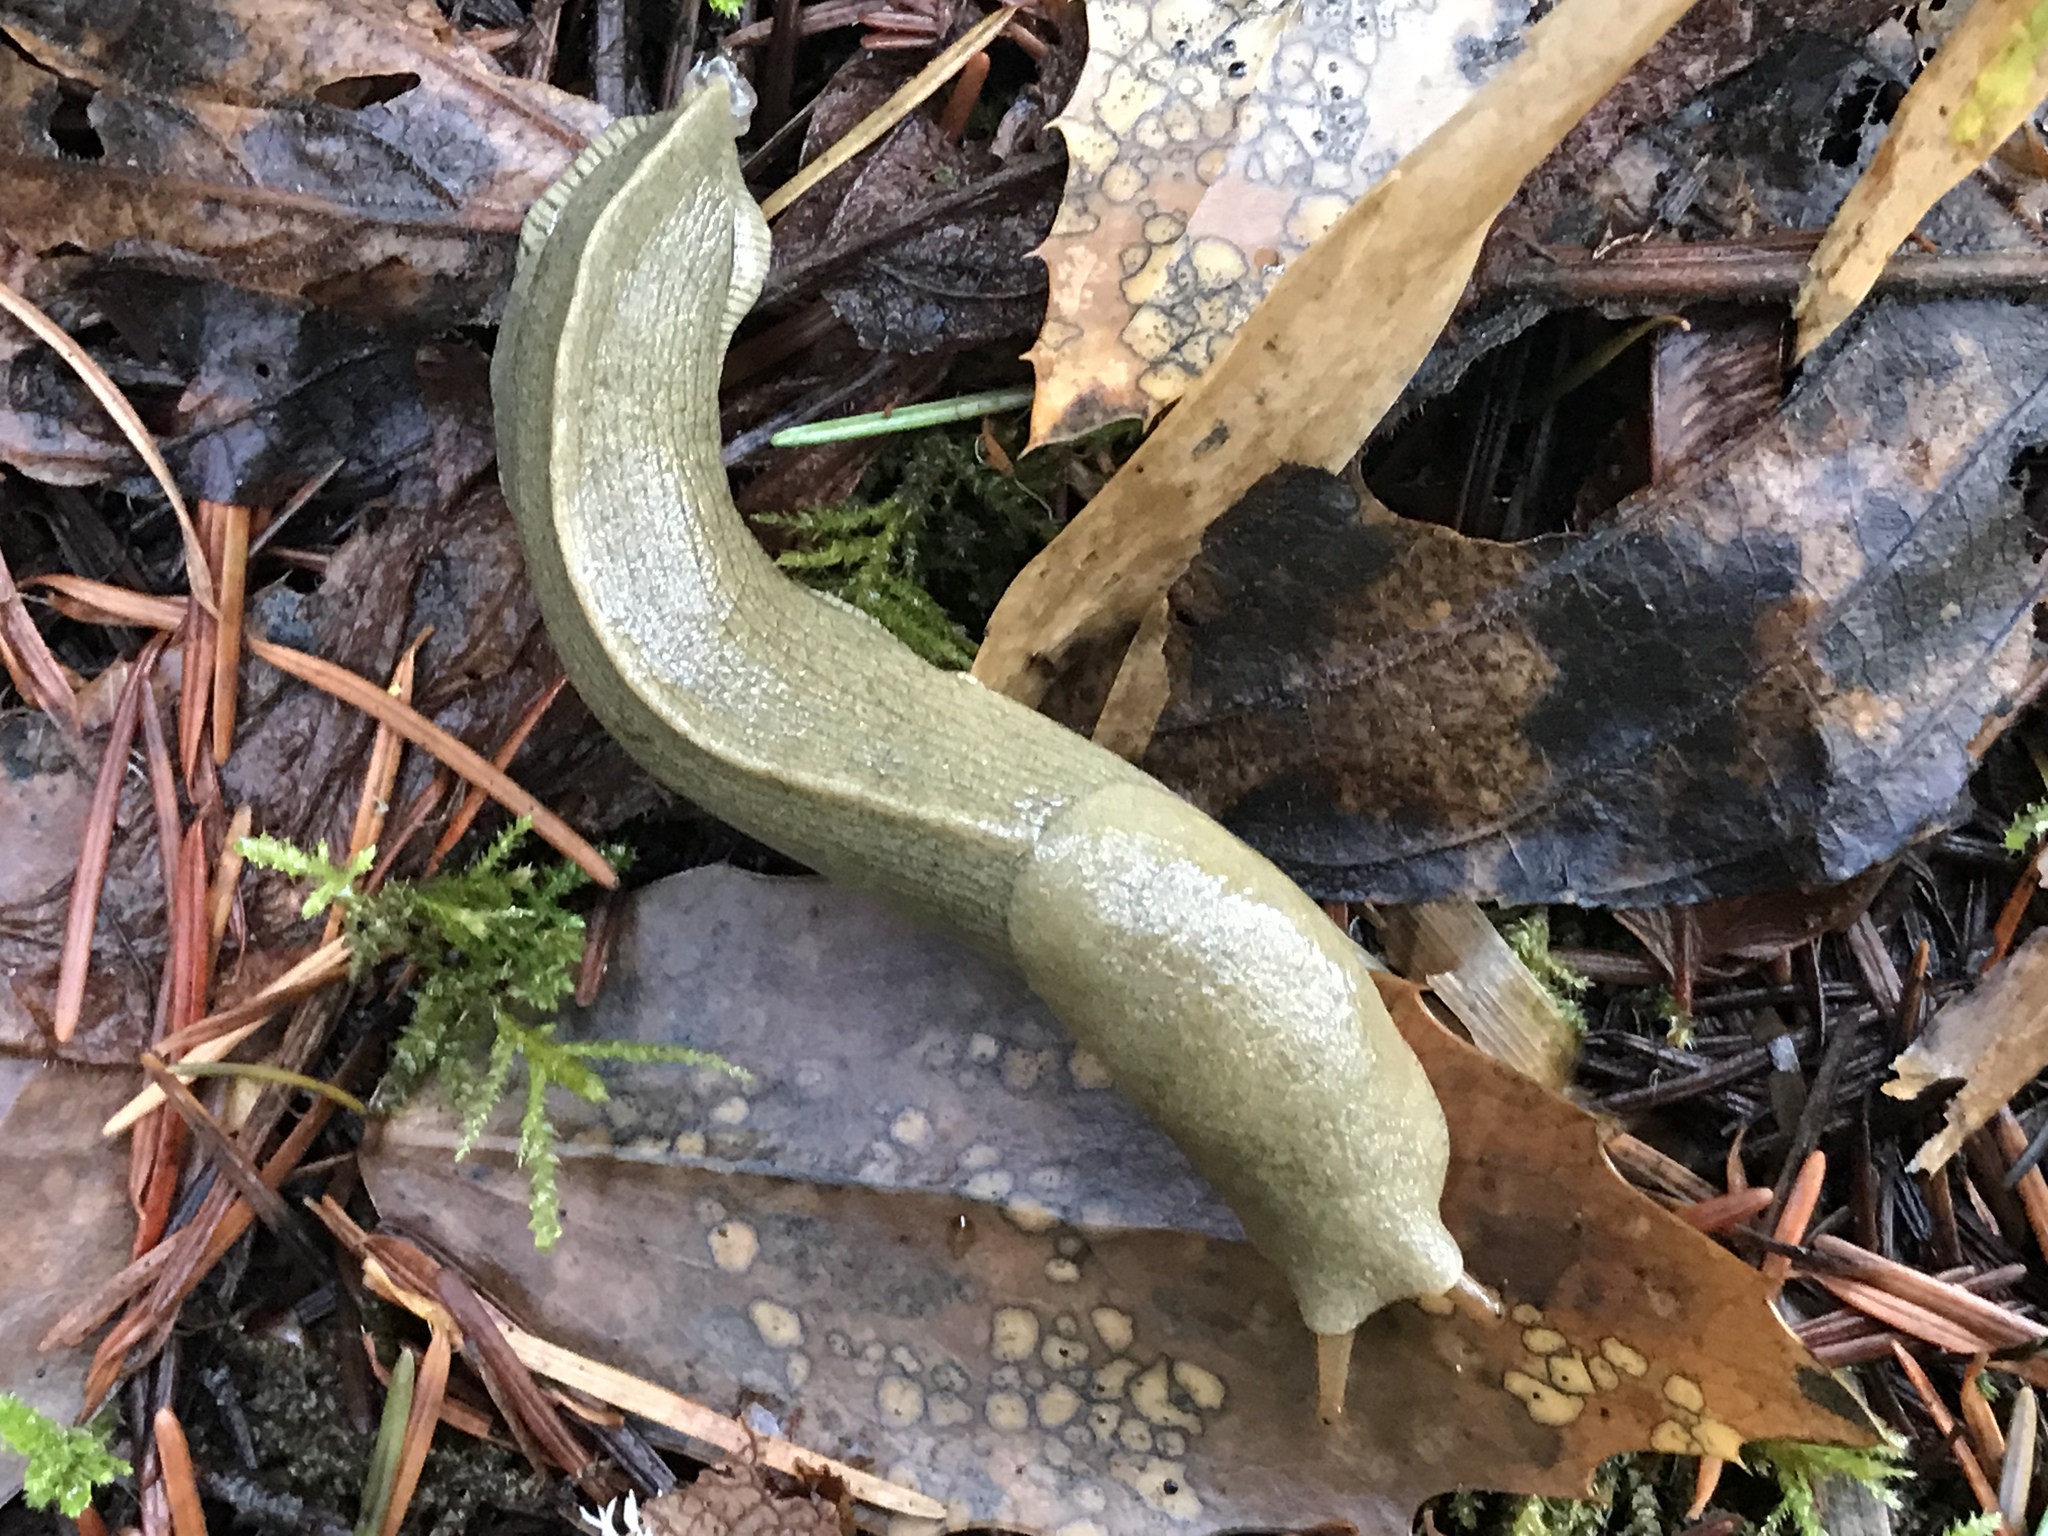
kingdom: Animalia
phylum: Mollusca
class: Gastropoda
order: Stylommatophora
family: Ariolimacidae
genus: Ariolimax
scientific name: Ariolimax columbianus
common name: Pacific banana slug
